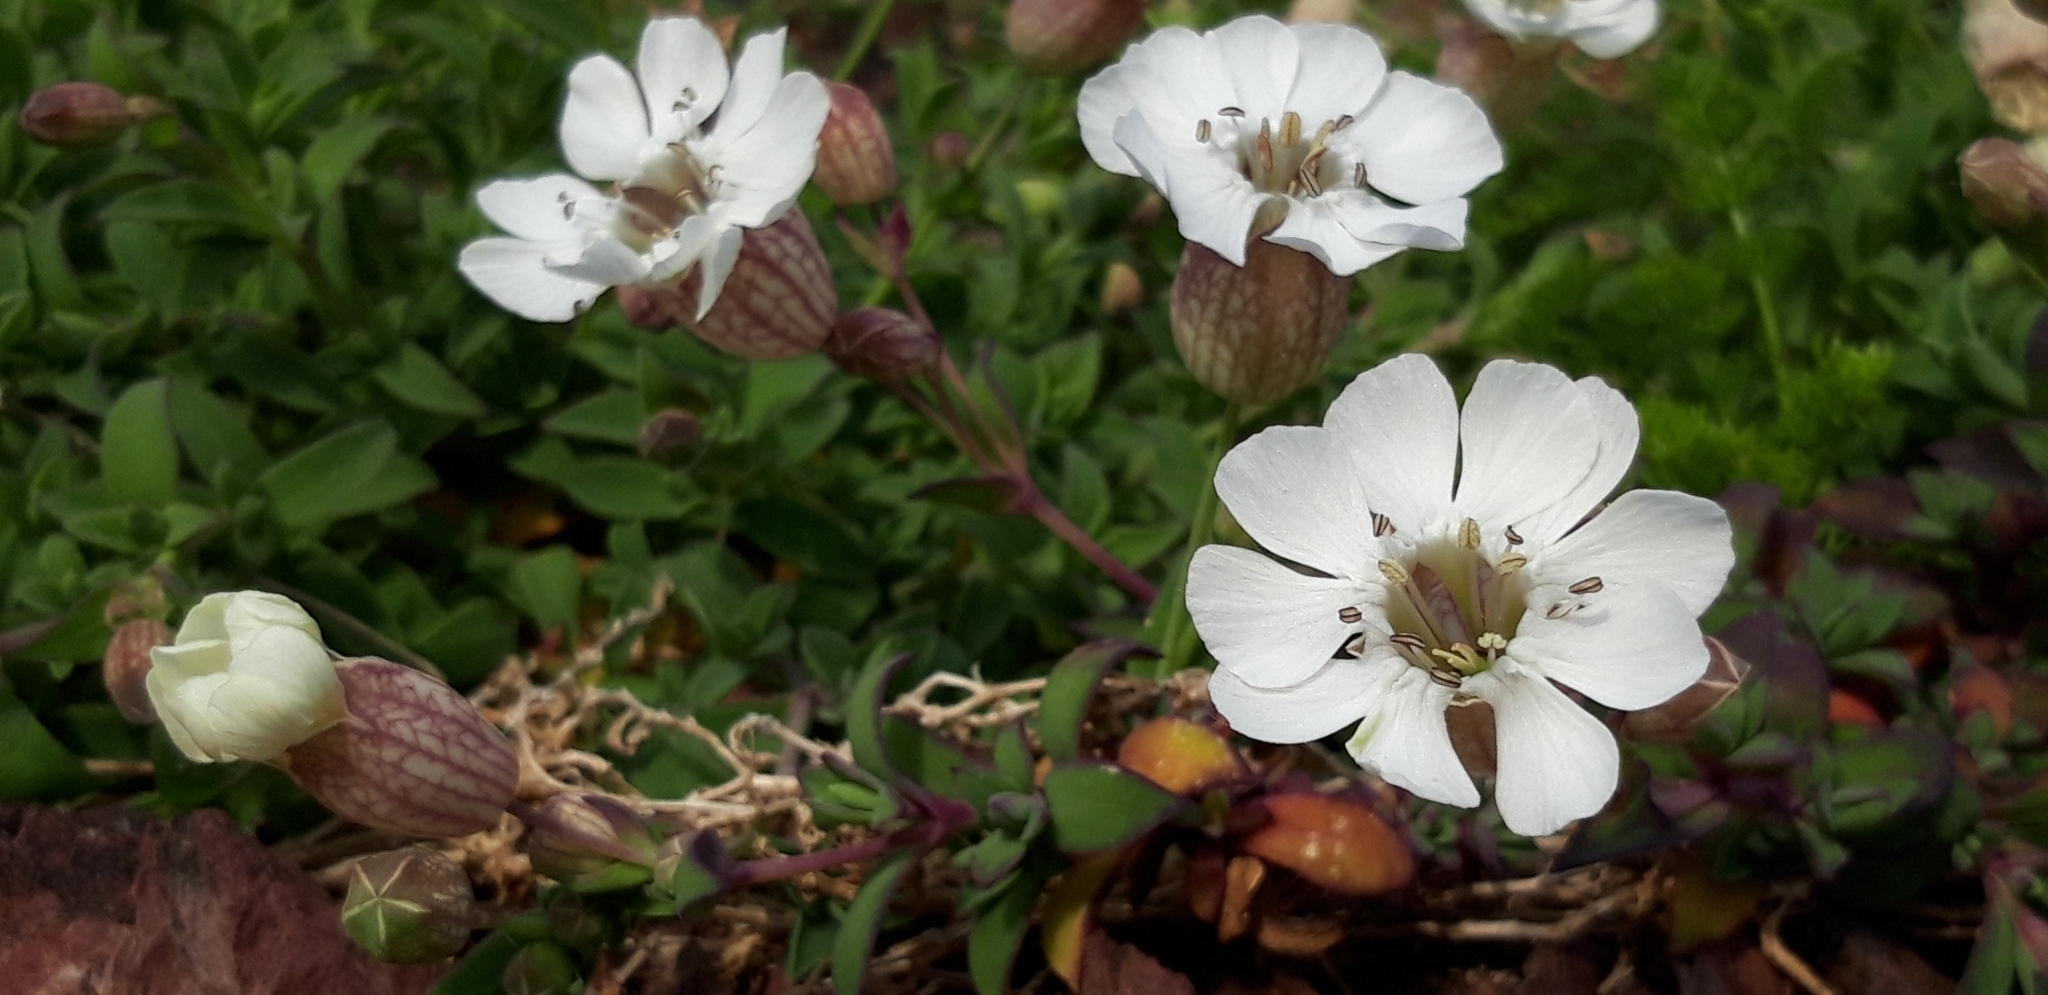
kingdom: Plantae
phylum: Tracheophyta
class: Magnoliopsida
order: Caryophyllales
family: Caryophyllaceae
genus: Silene
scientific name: Silene uniflora
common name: Sea campion
